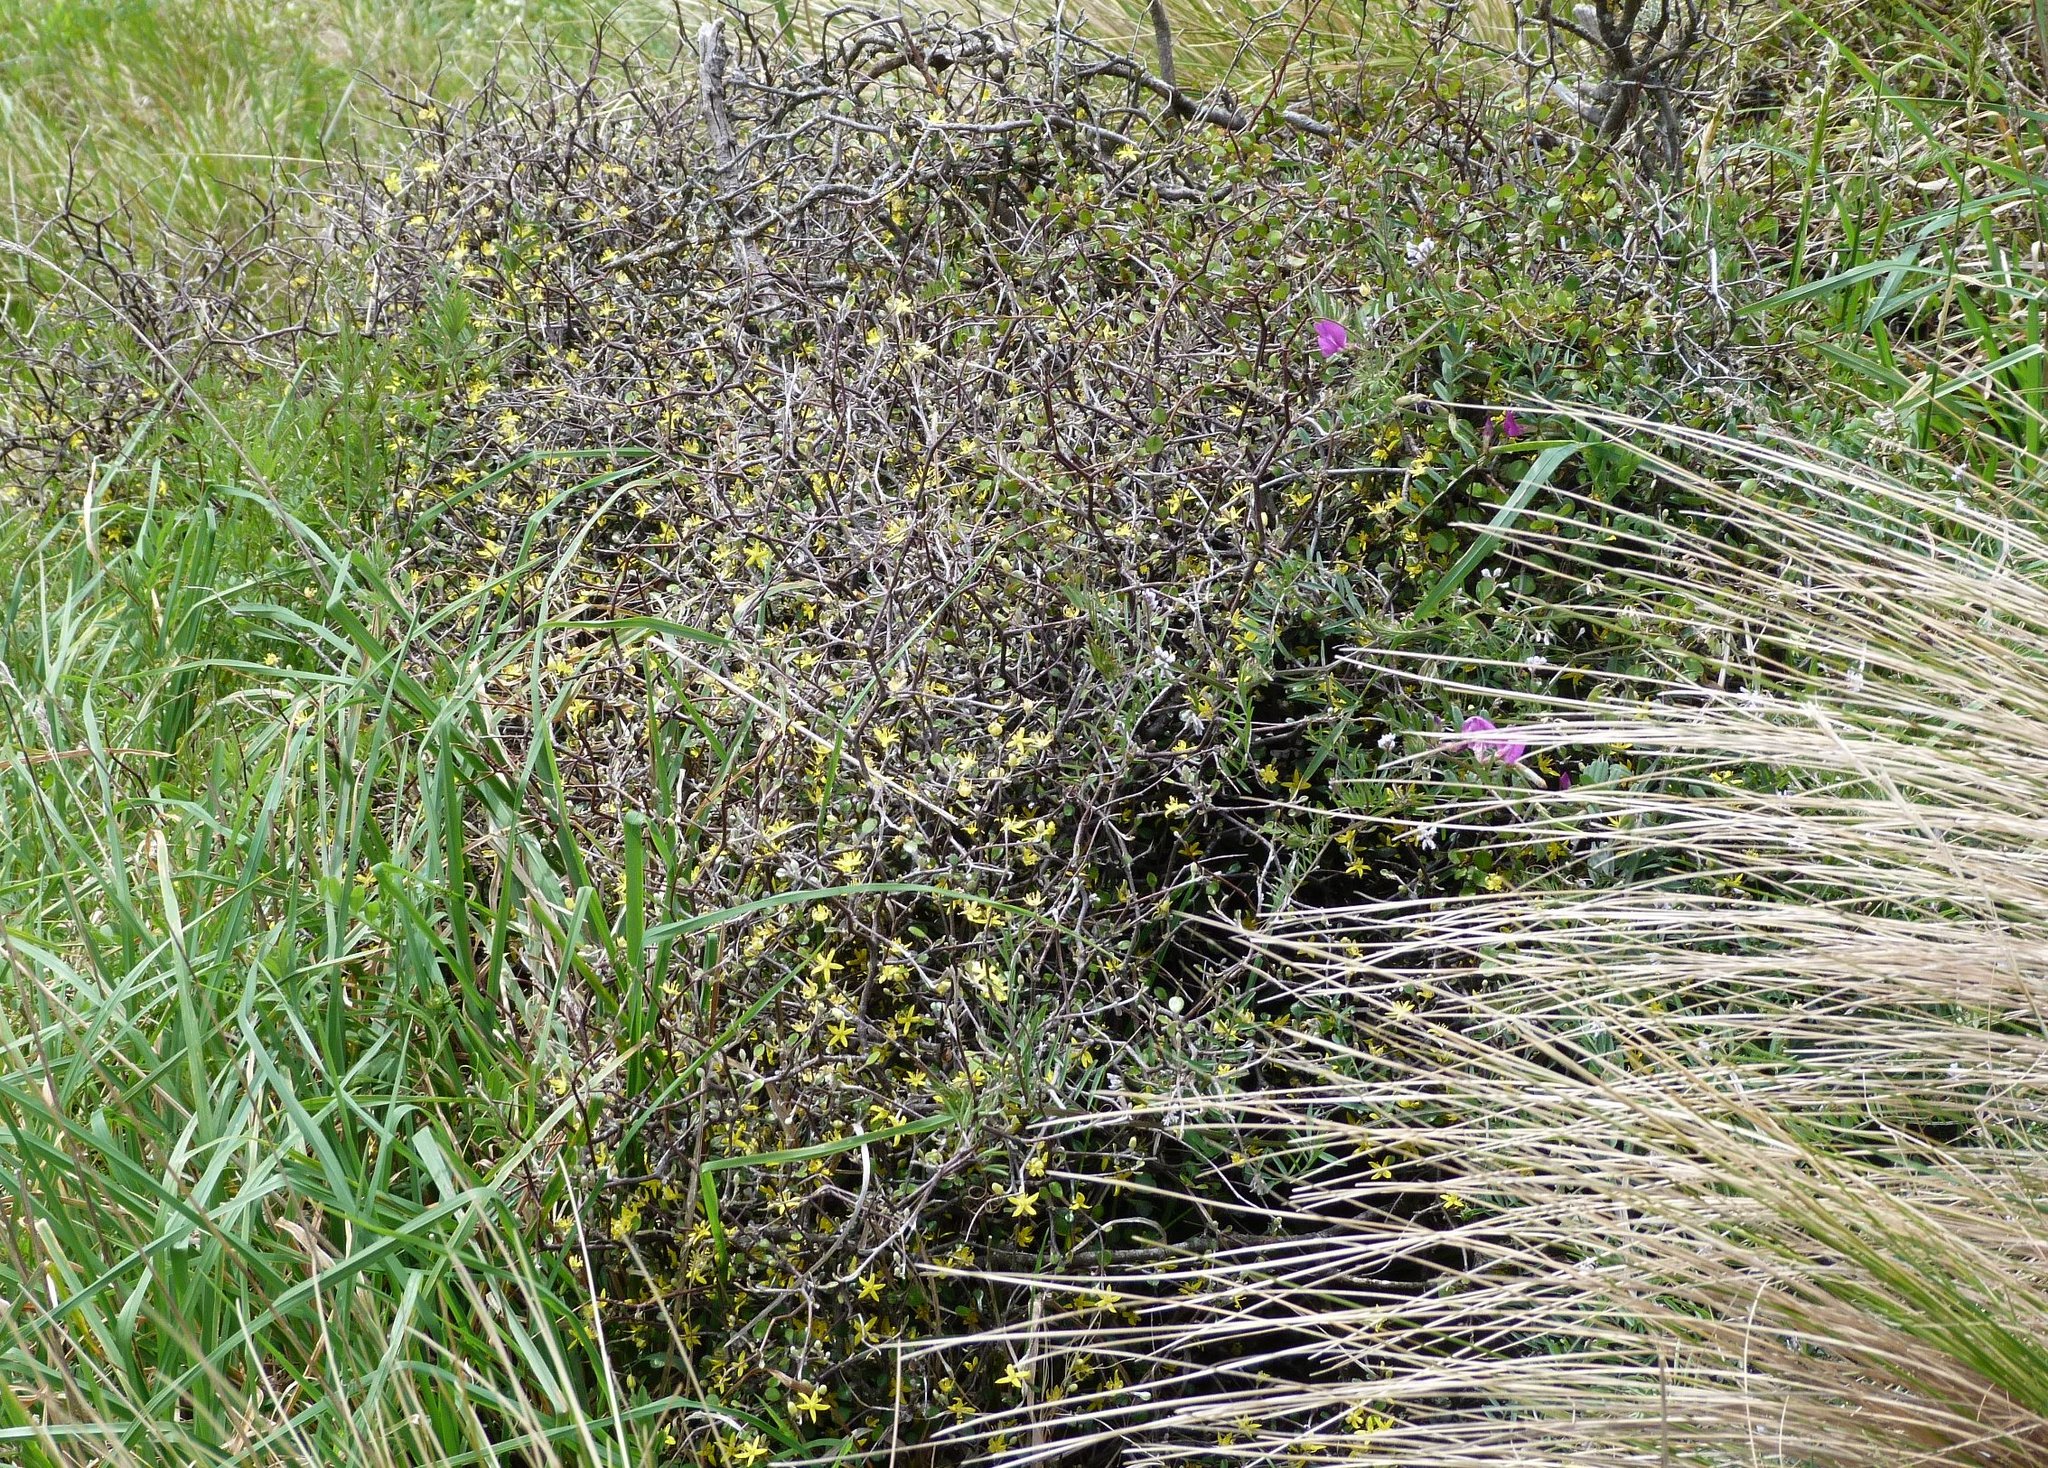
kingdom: Plantae
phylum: Tracheophyta
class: Magnoliopsida
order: Asterales
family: Argophyllaceae
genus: Corokia
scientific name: Corokia cotoneaster
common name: Wire nettingbush
